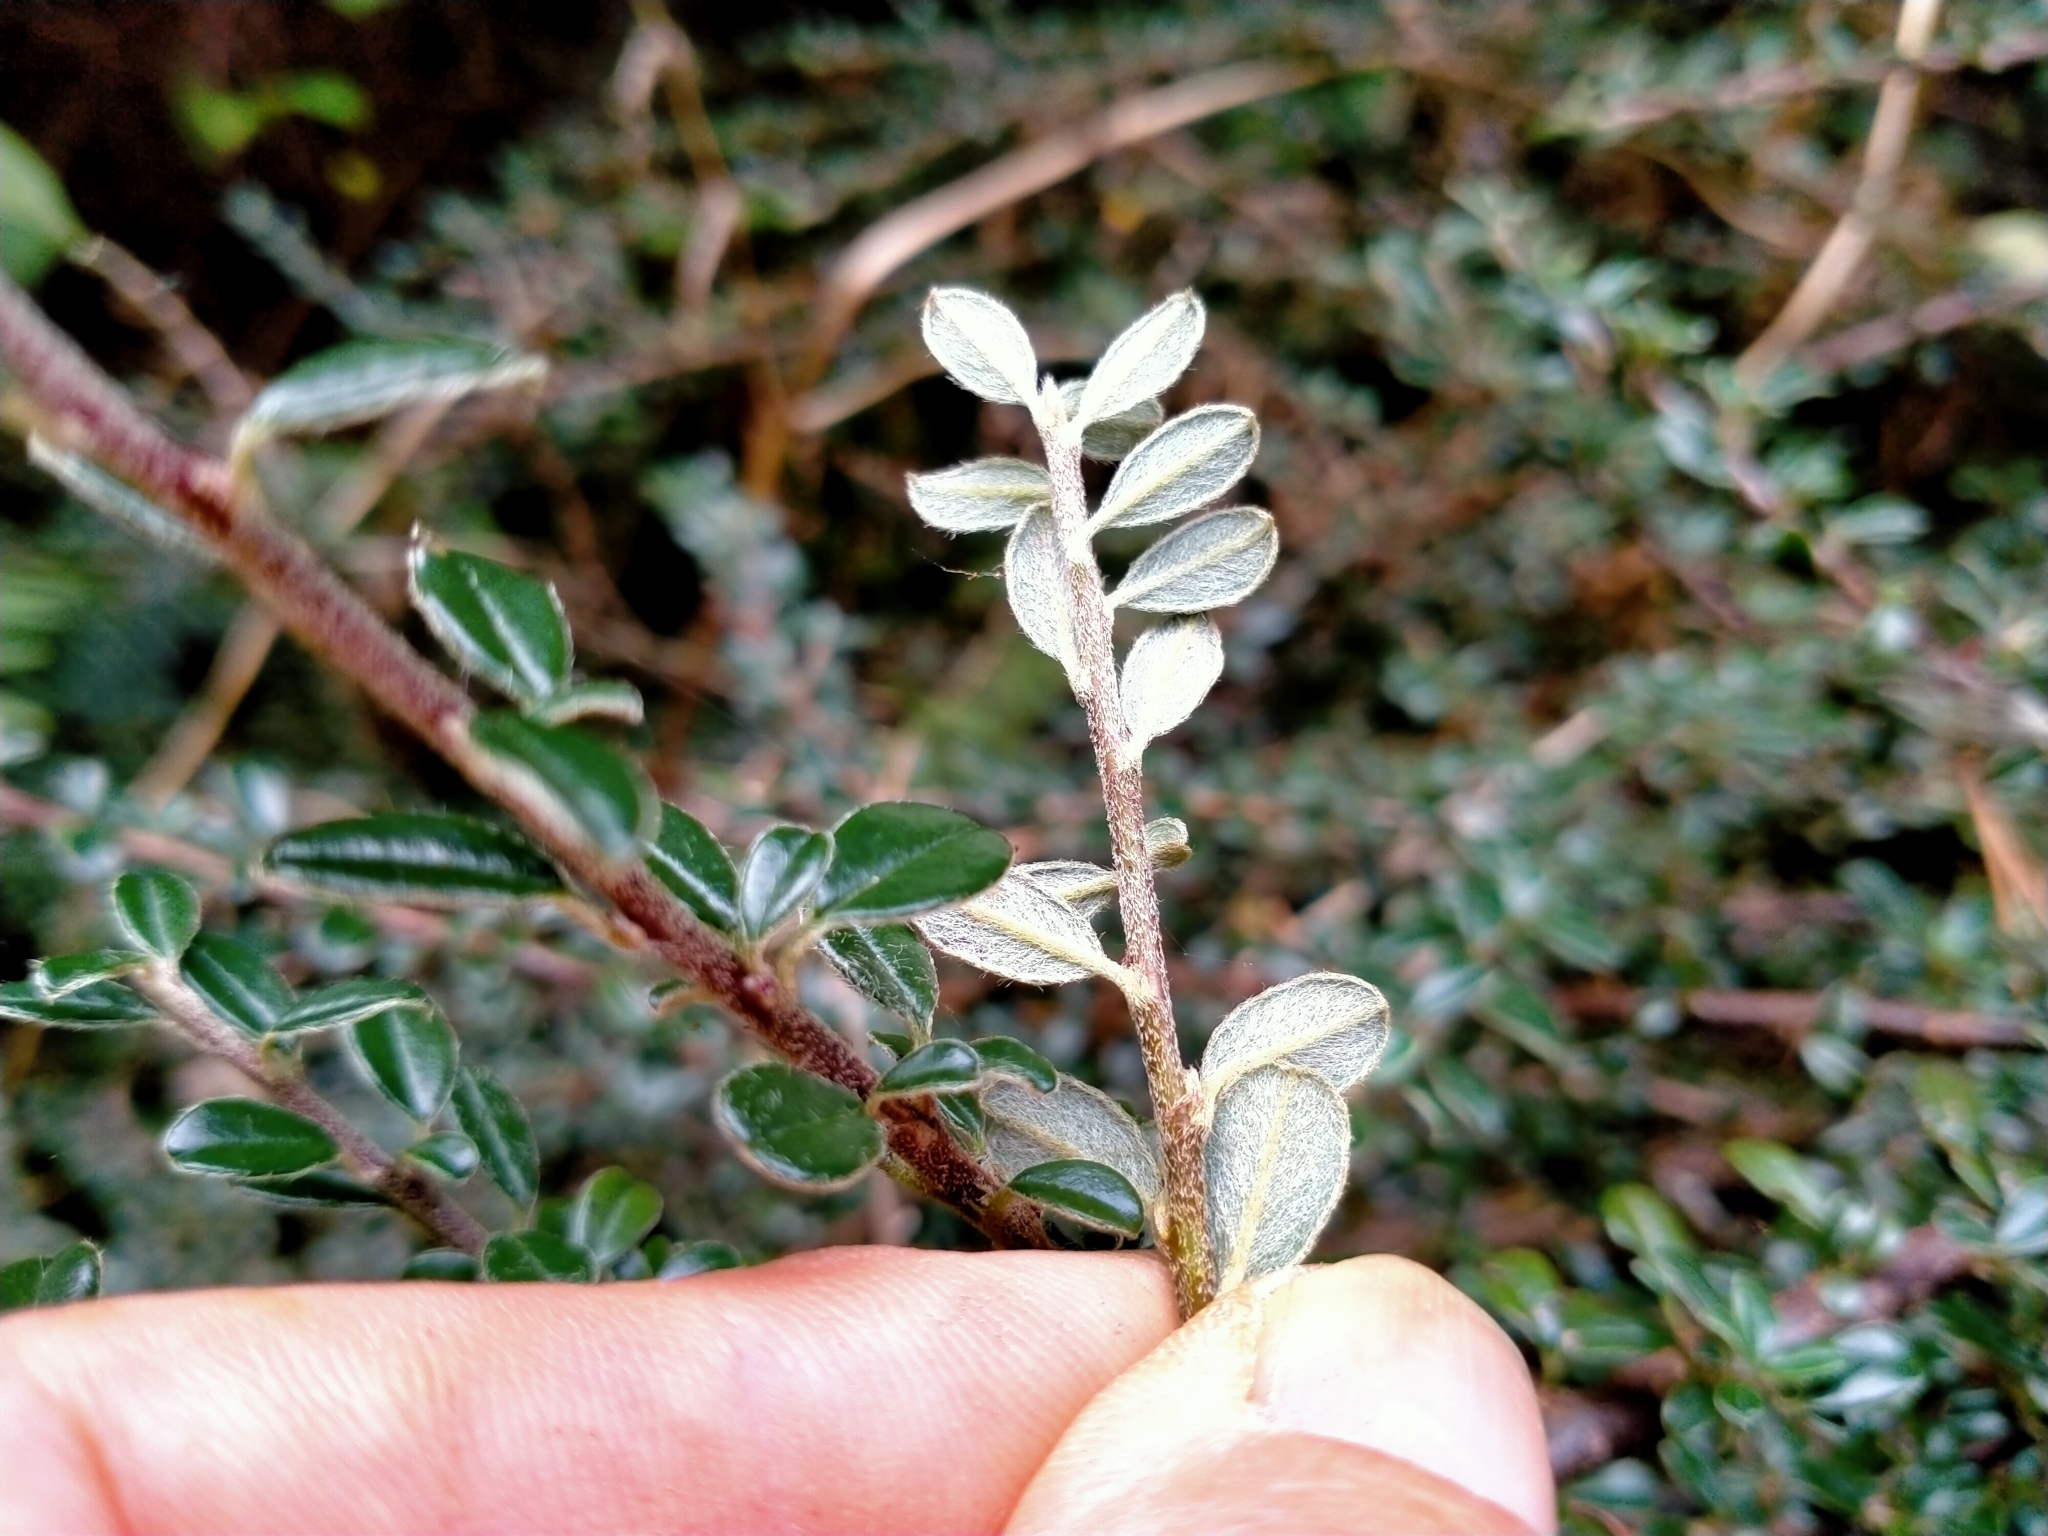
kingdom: Plantae
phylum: Tracheophyta
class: Magnoliopsida
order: Rosales
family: Rosaceae
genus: Cotoneaster
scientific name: Cotoneaster microphyllus
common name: Small-leaved cotoneaster
